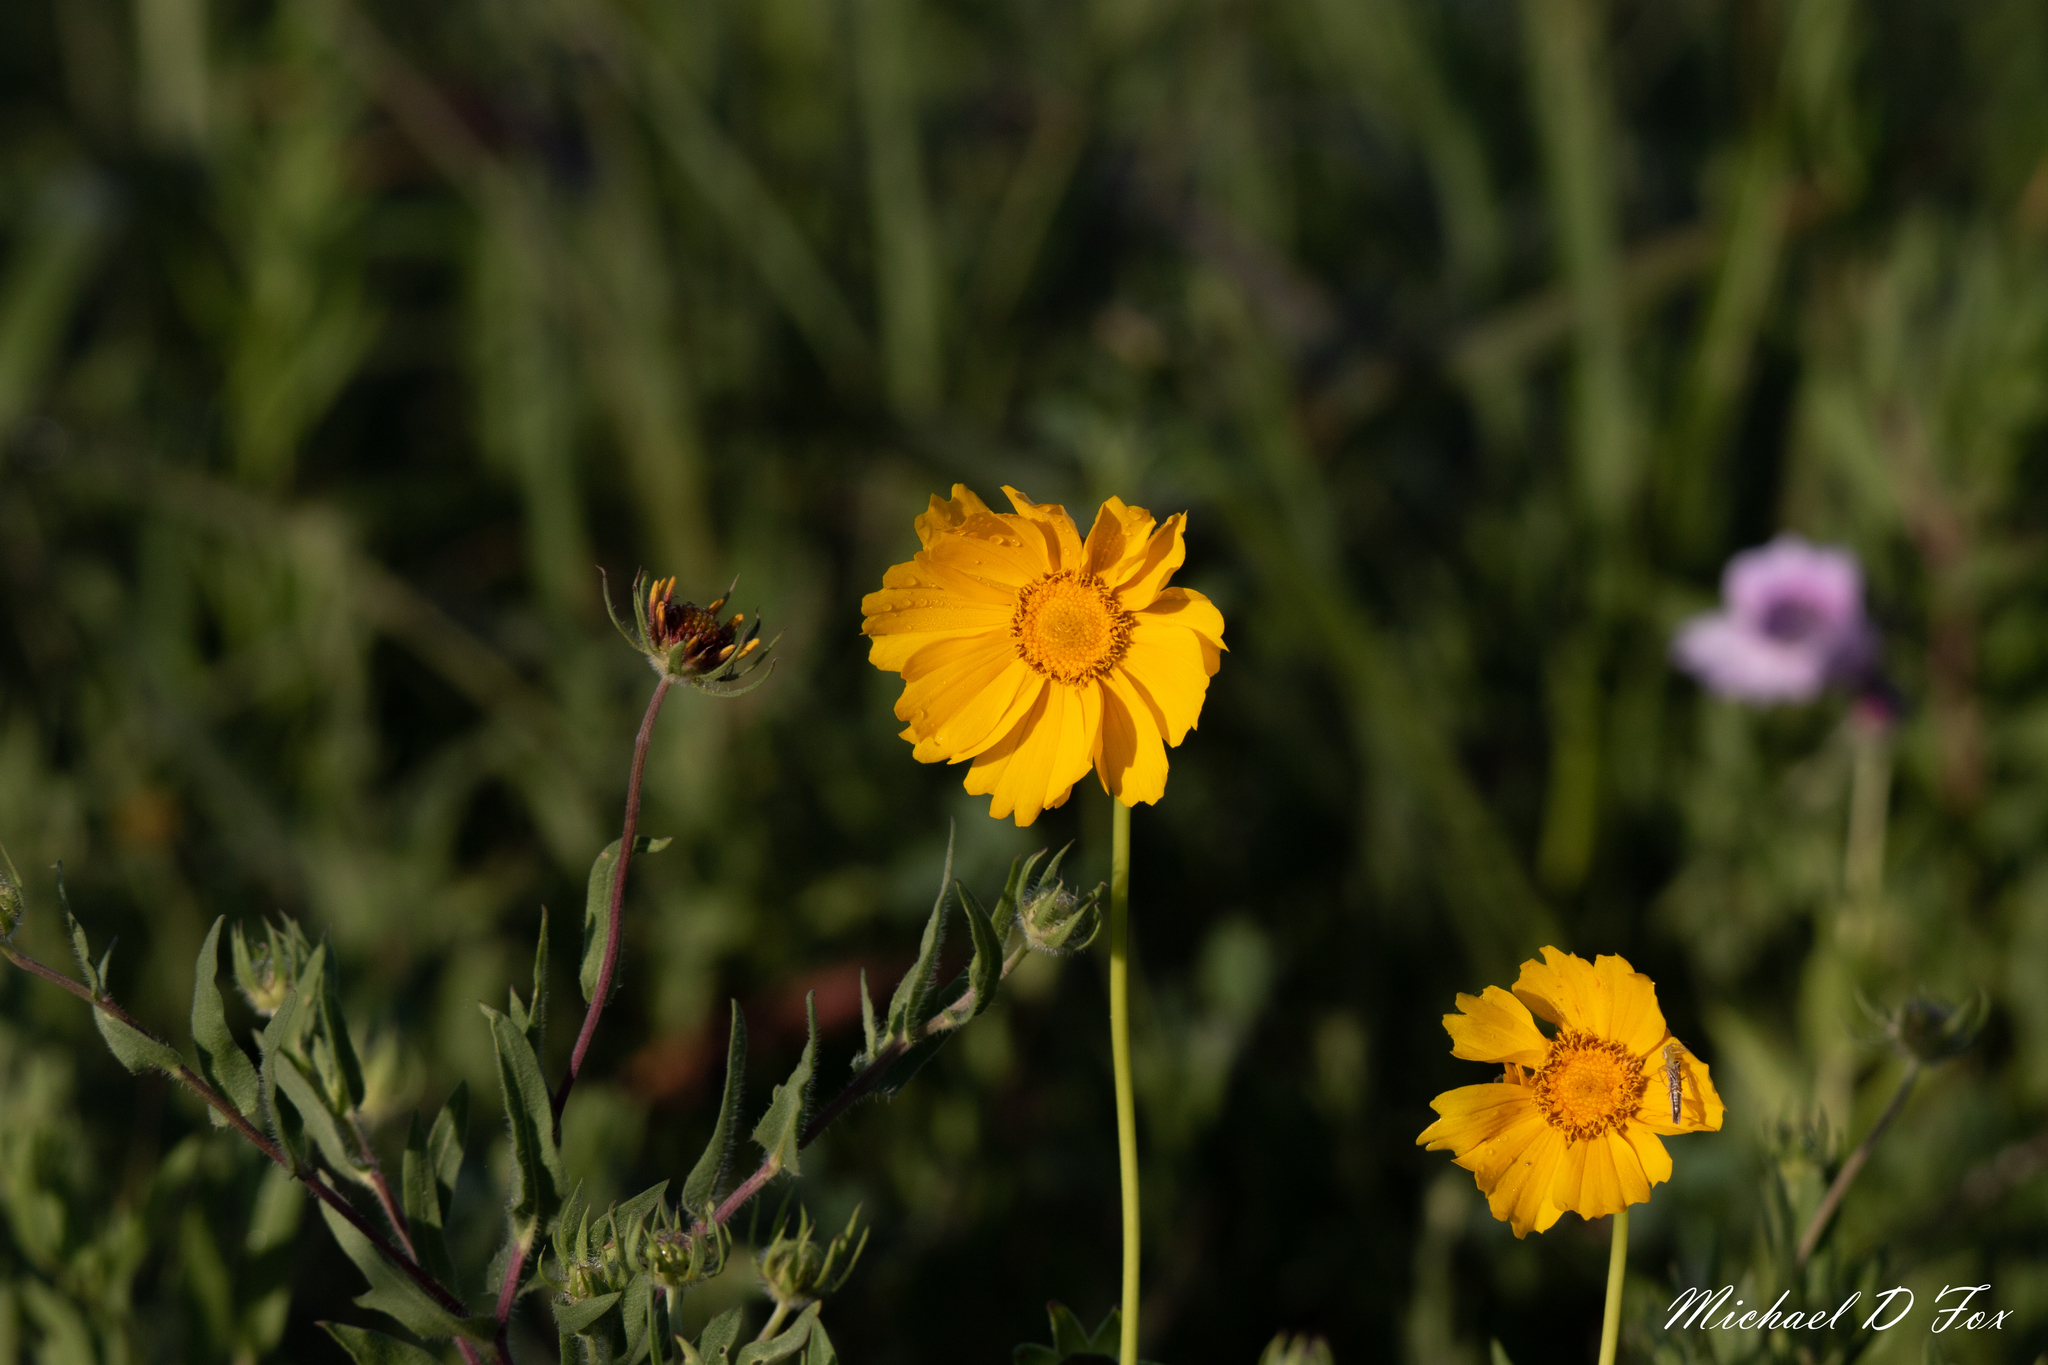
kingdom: Plantae
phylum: Tracheophyta
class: Magnoliopsida
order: Asterales
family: Asteraceae
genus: Coreopsis
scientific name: Coreopsis lanceolata
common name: Garden coreopsis
